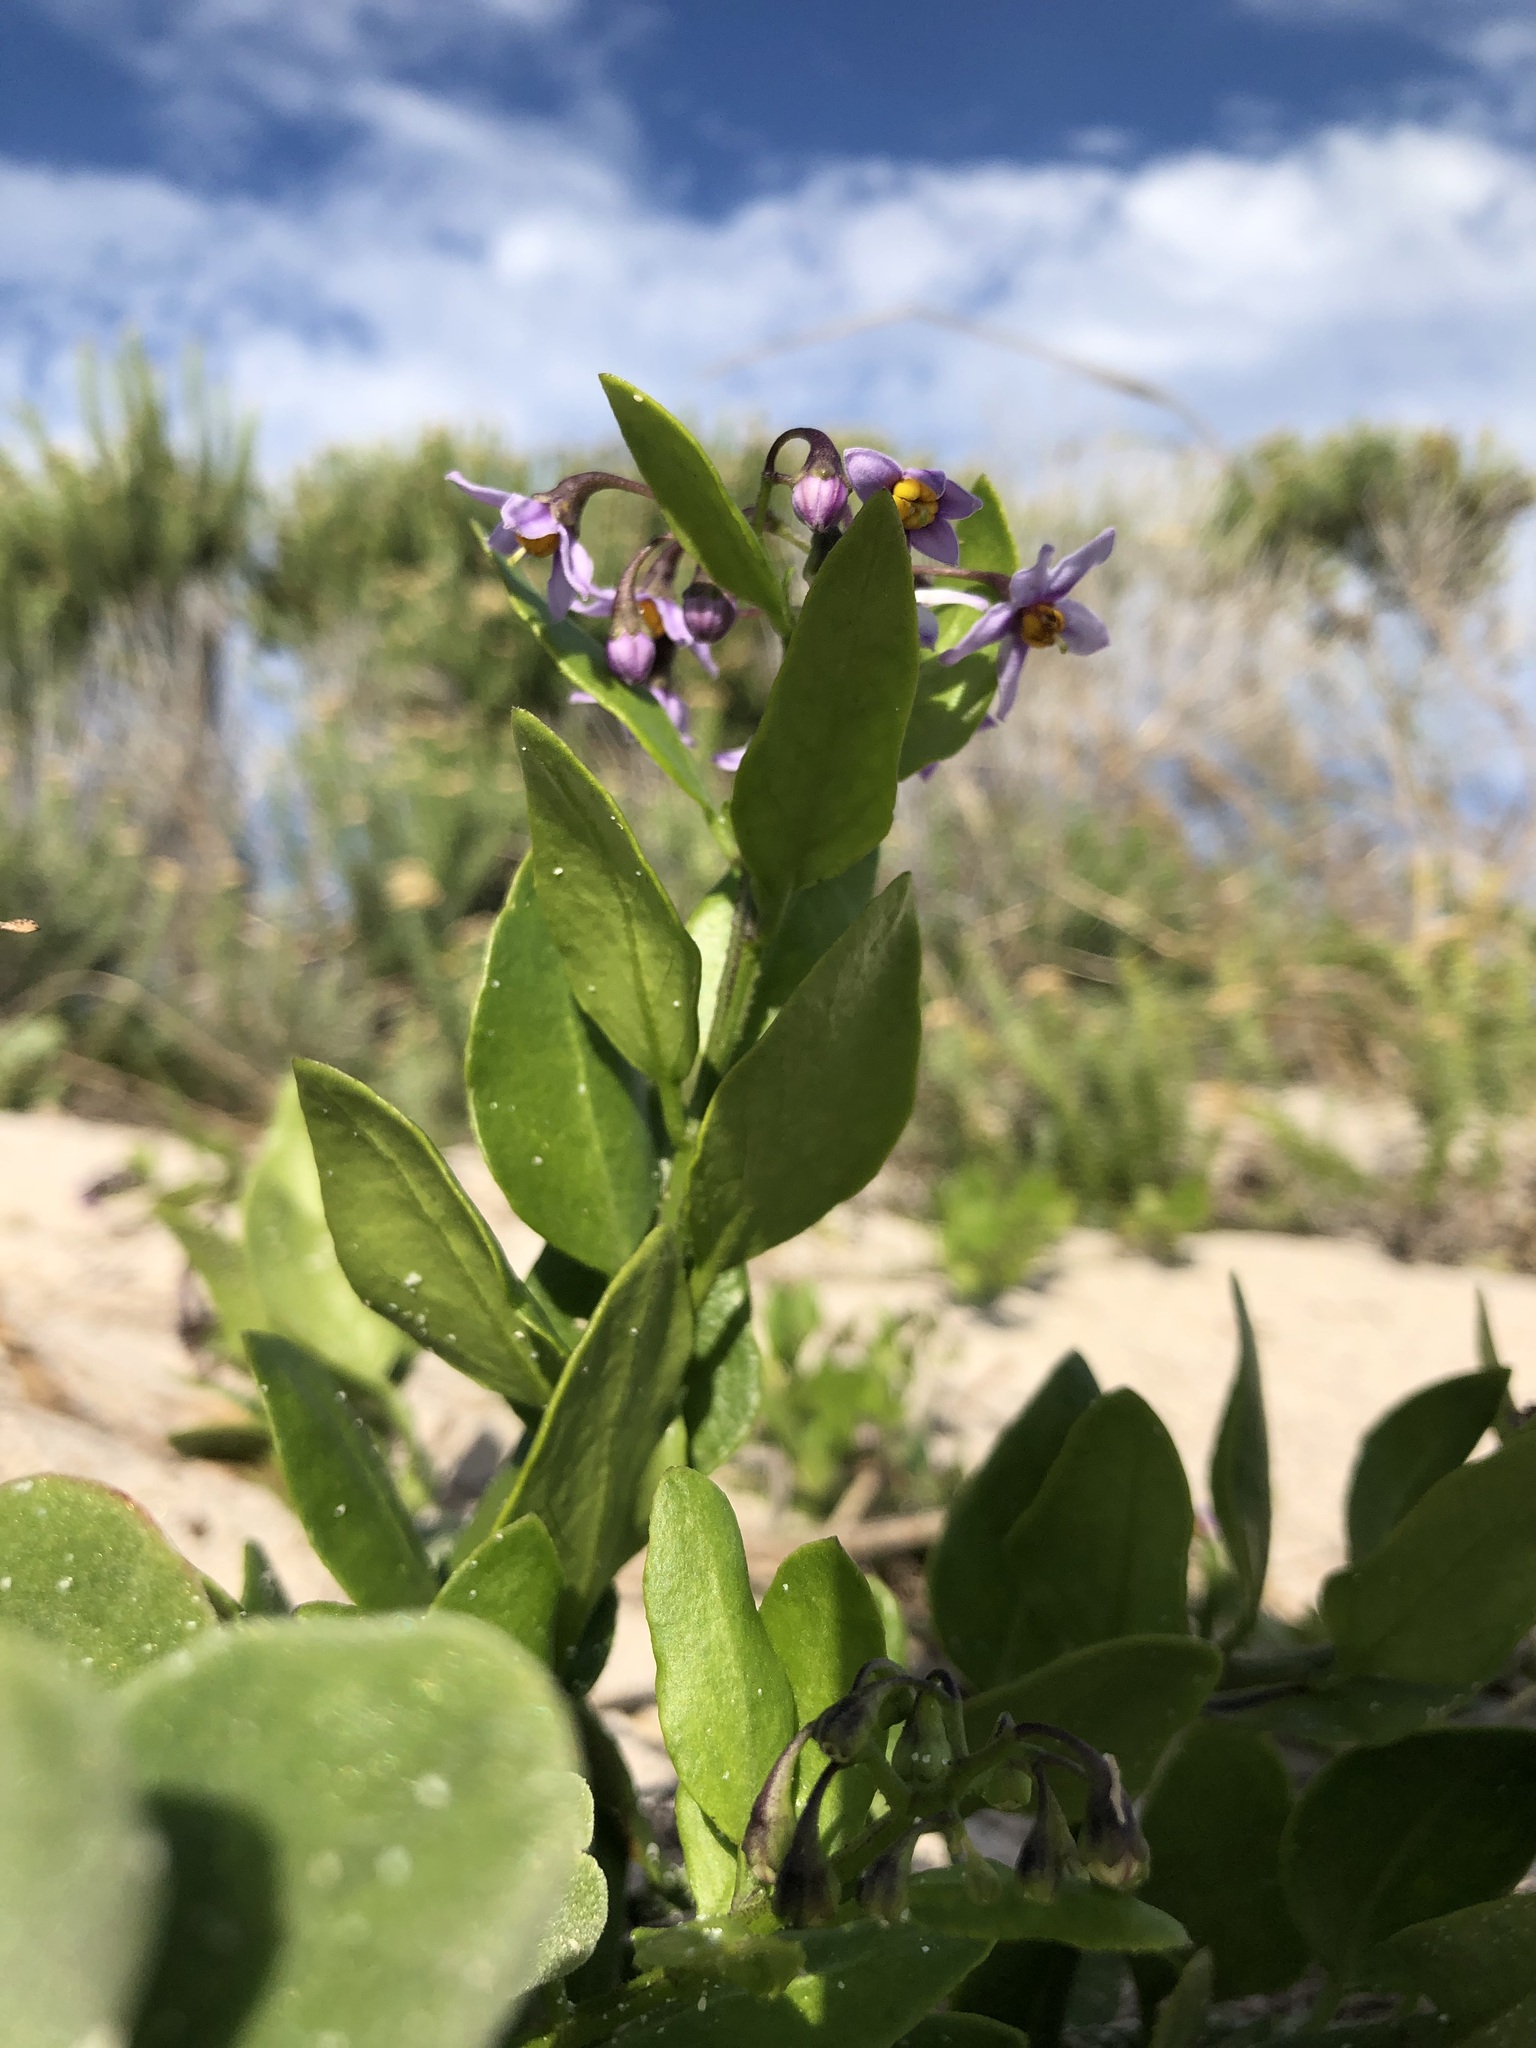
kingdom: Plantae
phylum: Tracheophyta
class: Magnoliopsida
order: Solanales
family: Solanaceae
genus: Solanum
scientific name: Solanum africanum
